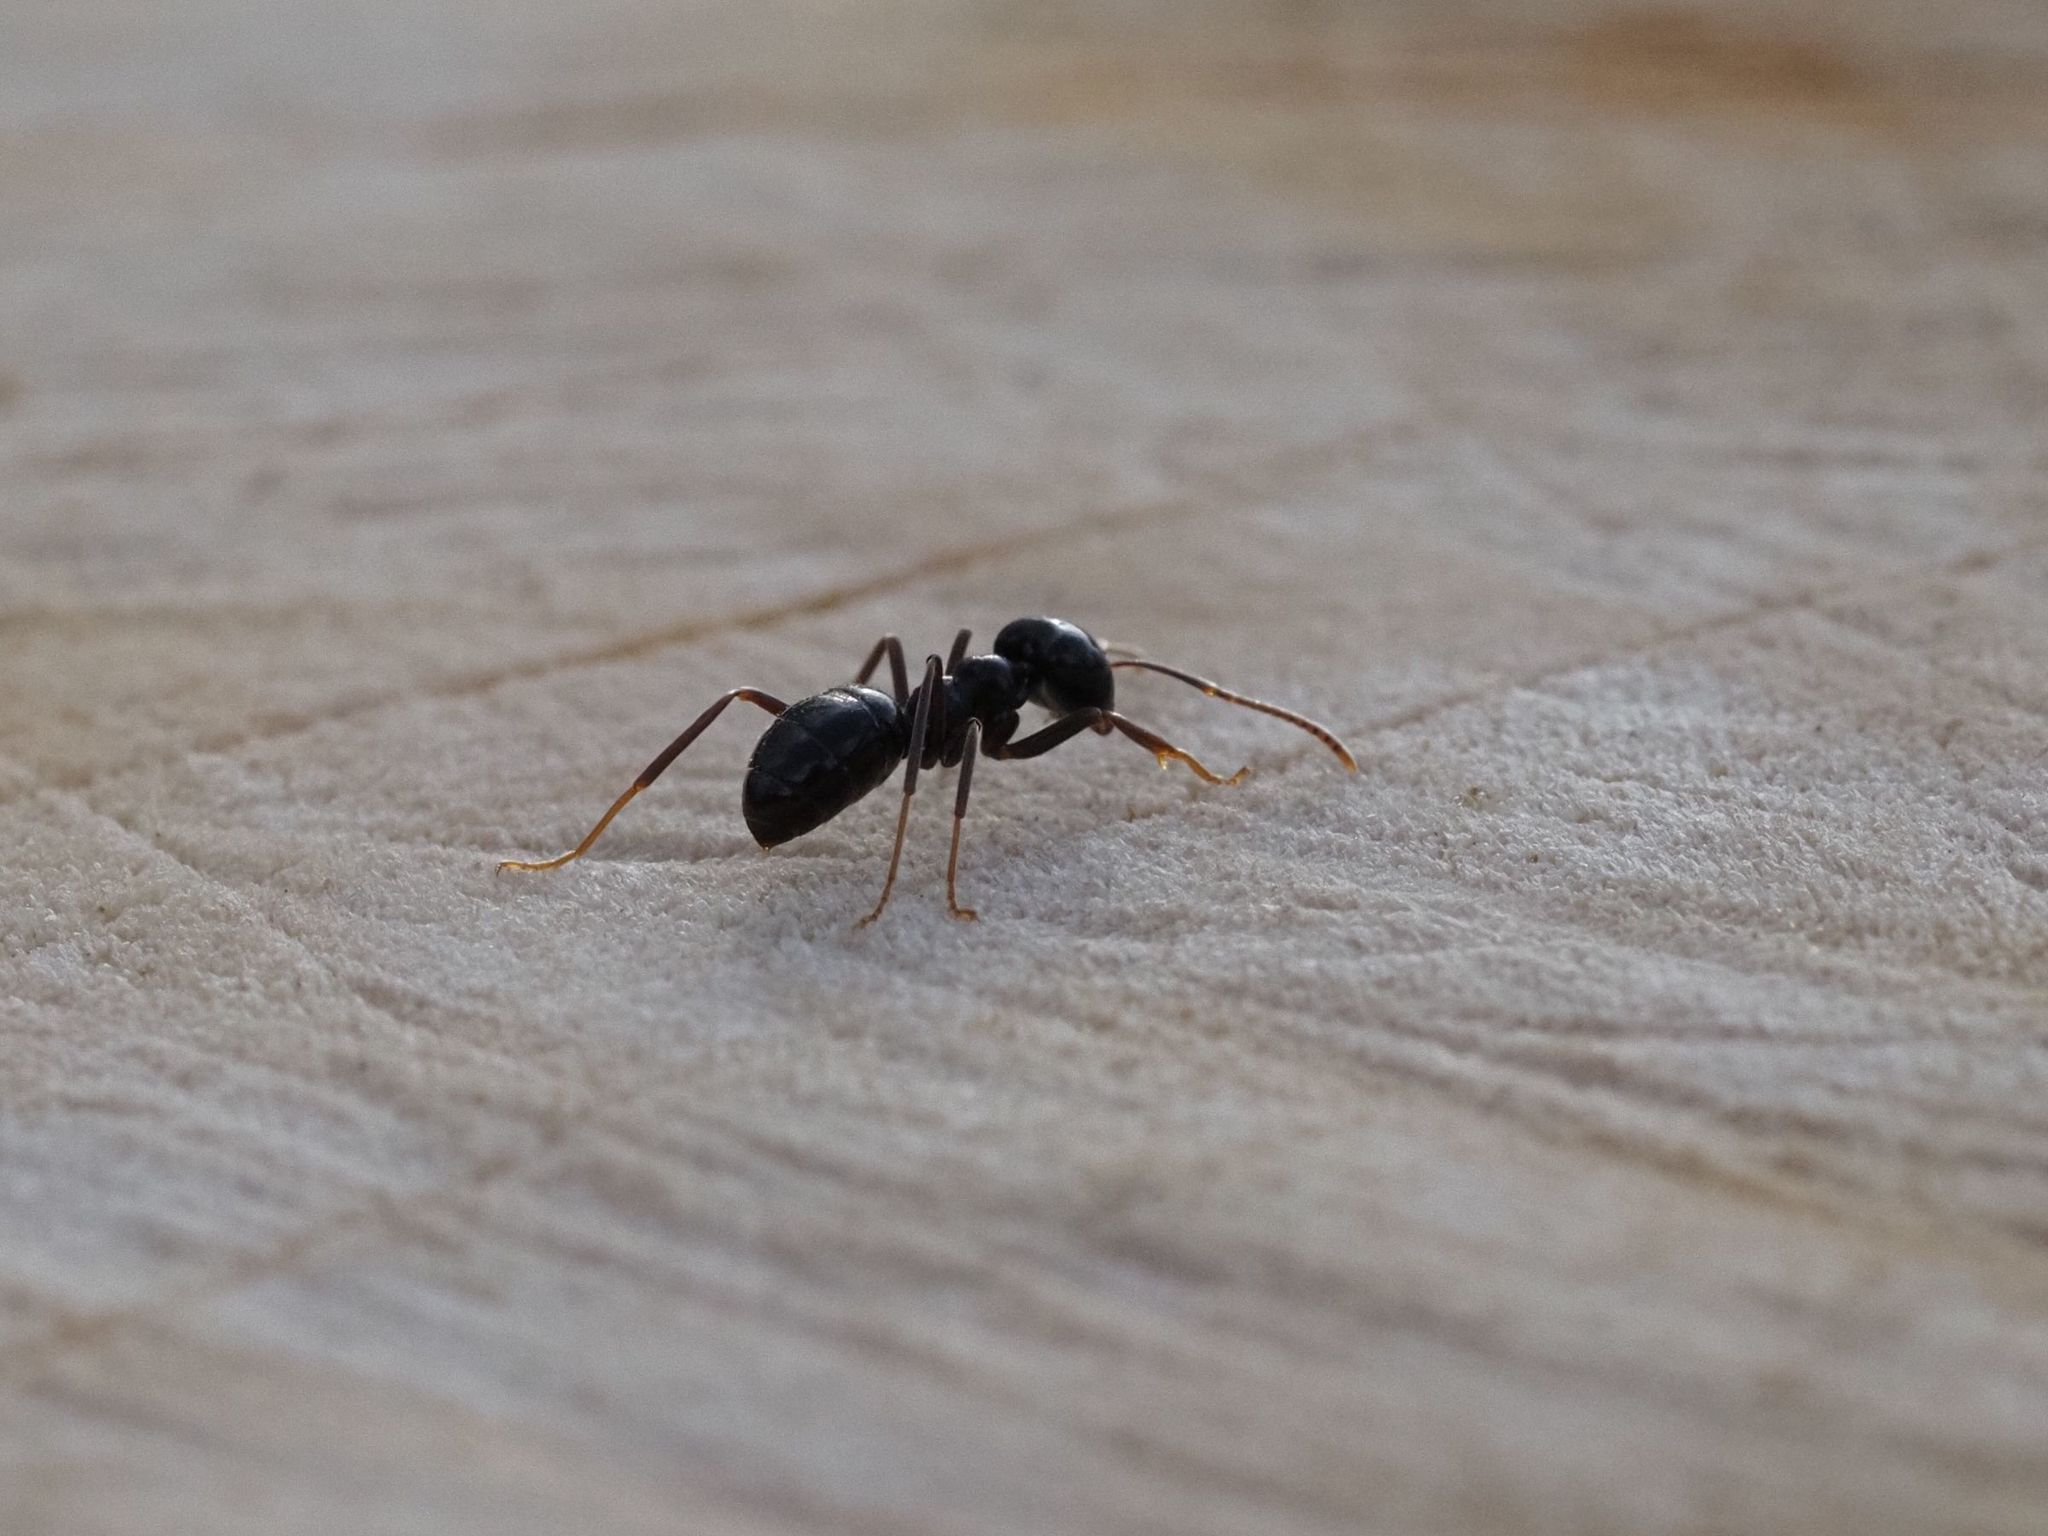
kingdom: Animalia
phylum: Arthropoda
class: Insecta
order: Hymenoptera
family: Formicidae
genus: Lasius
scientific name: Lasius fuliginosus
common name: Jet ant
